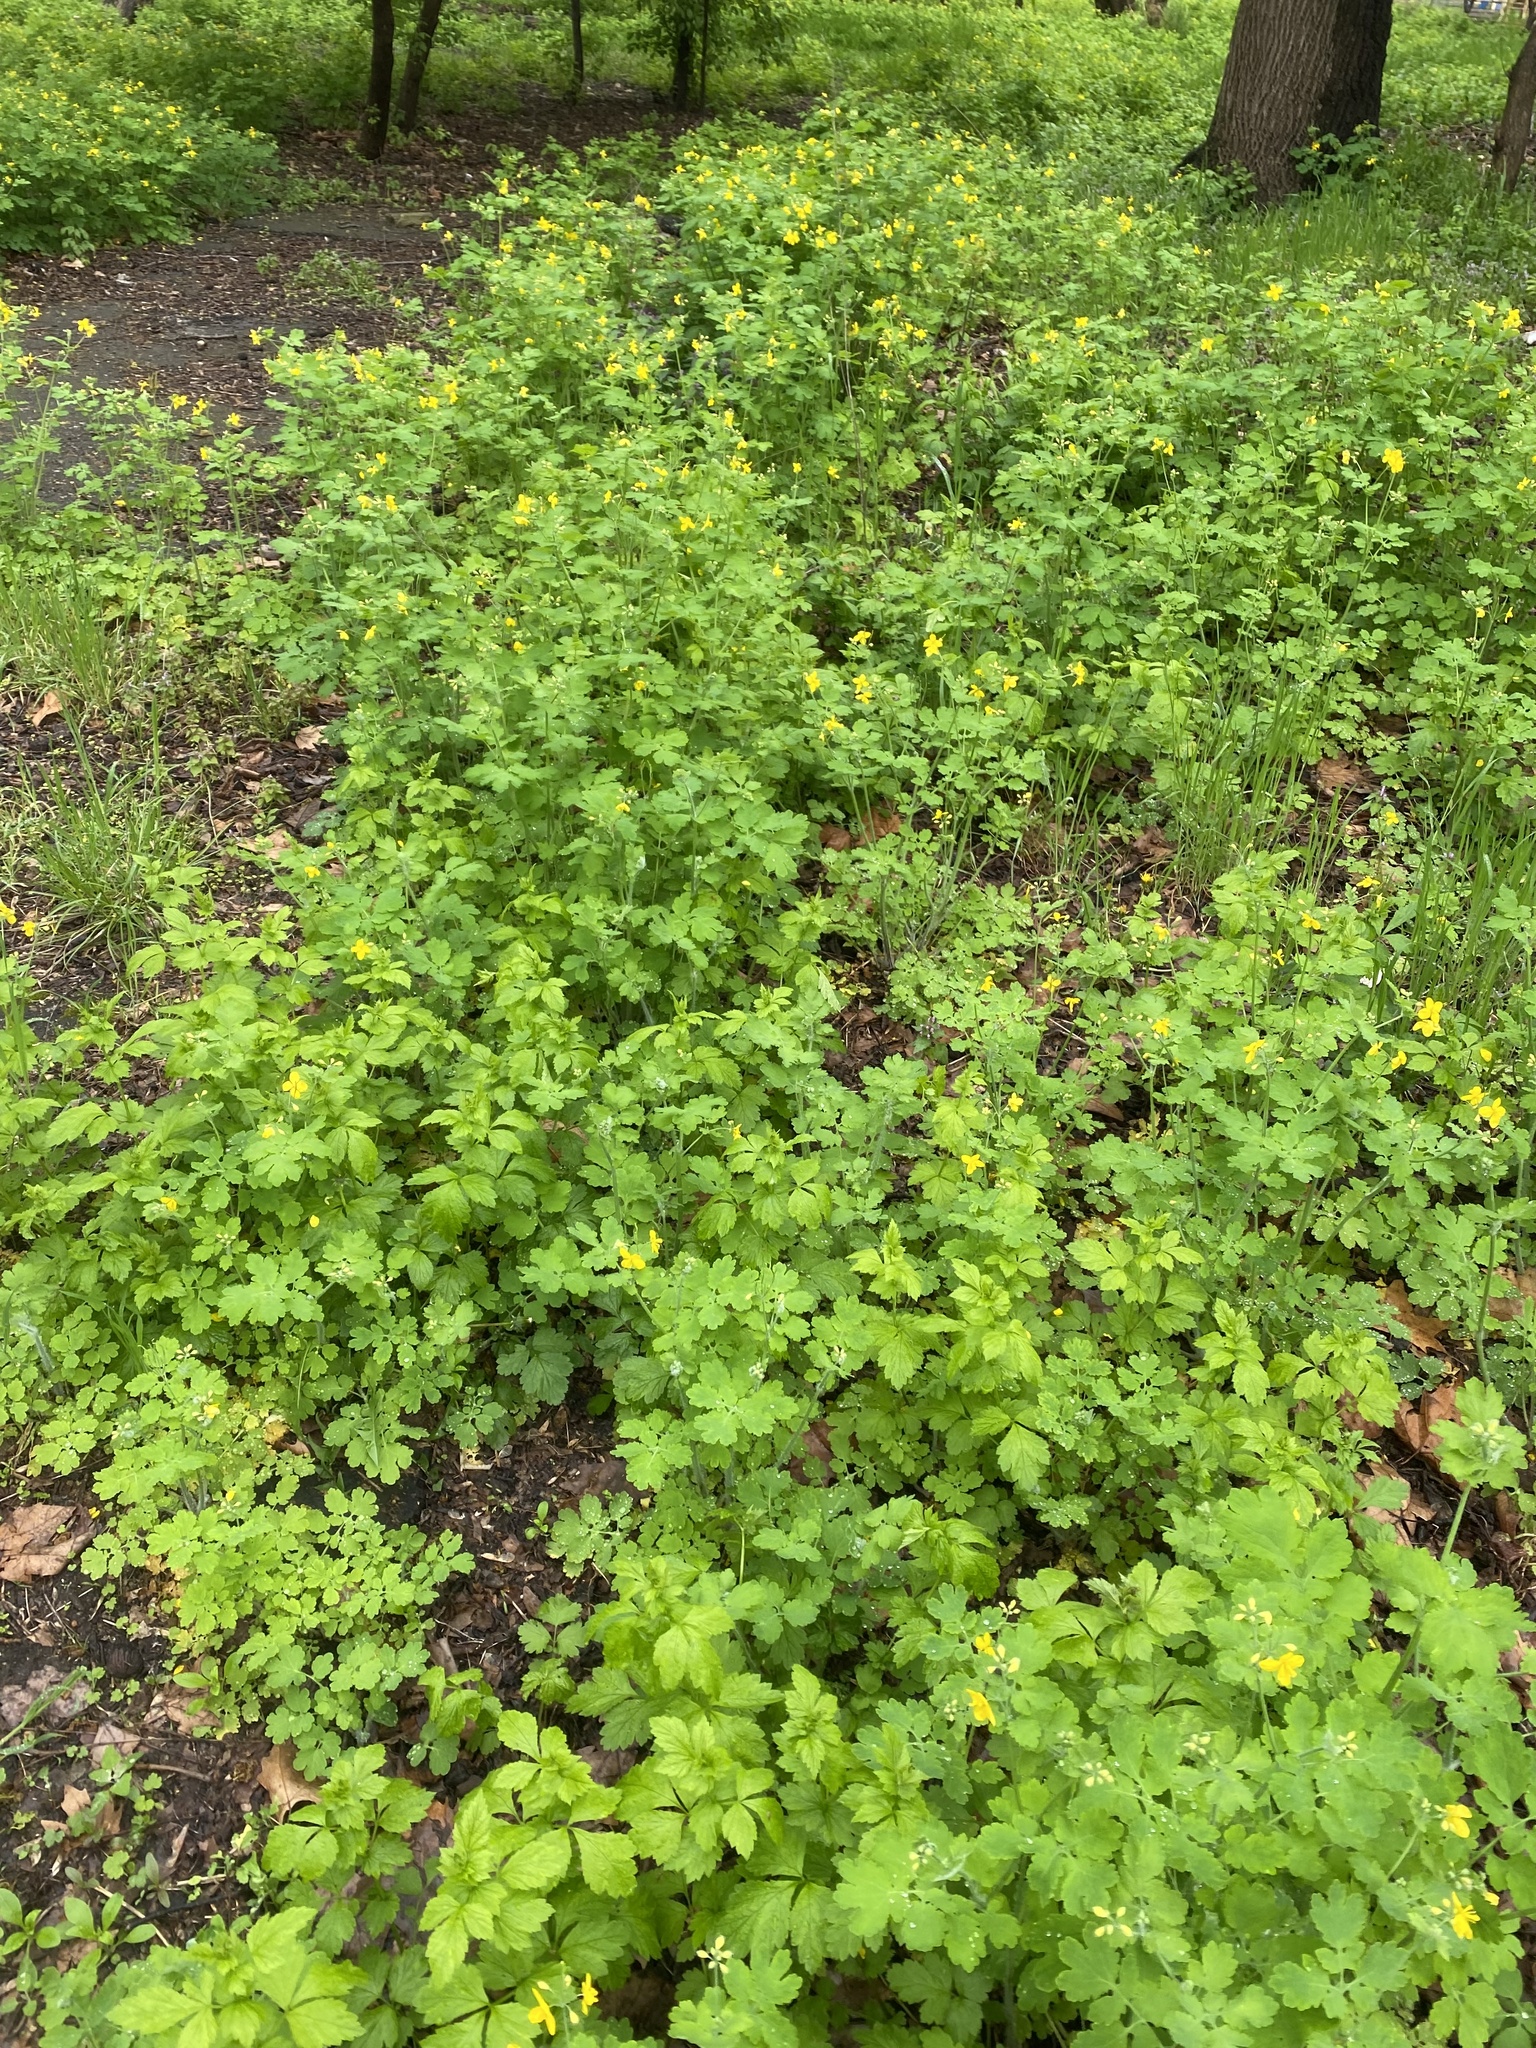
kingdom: Plantae
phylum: Tracheophyta
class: Magnoliopsida
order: Ranunculales
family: Papaveraceae
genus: Chelidonium
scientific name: Chelidonium majus
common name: Greater celandine
